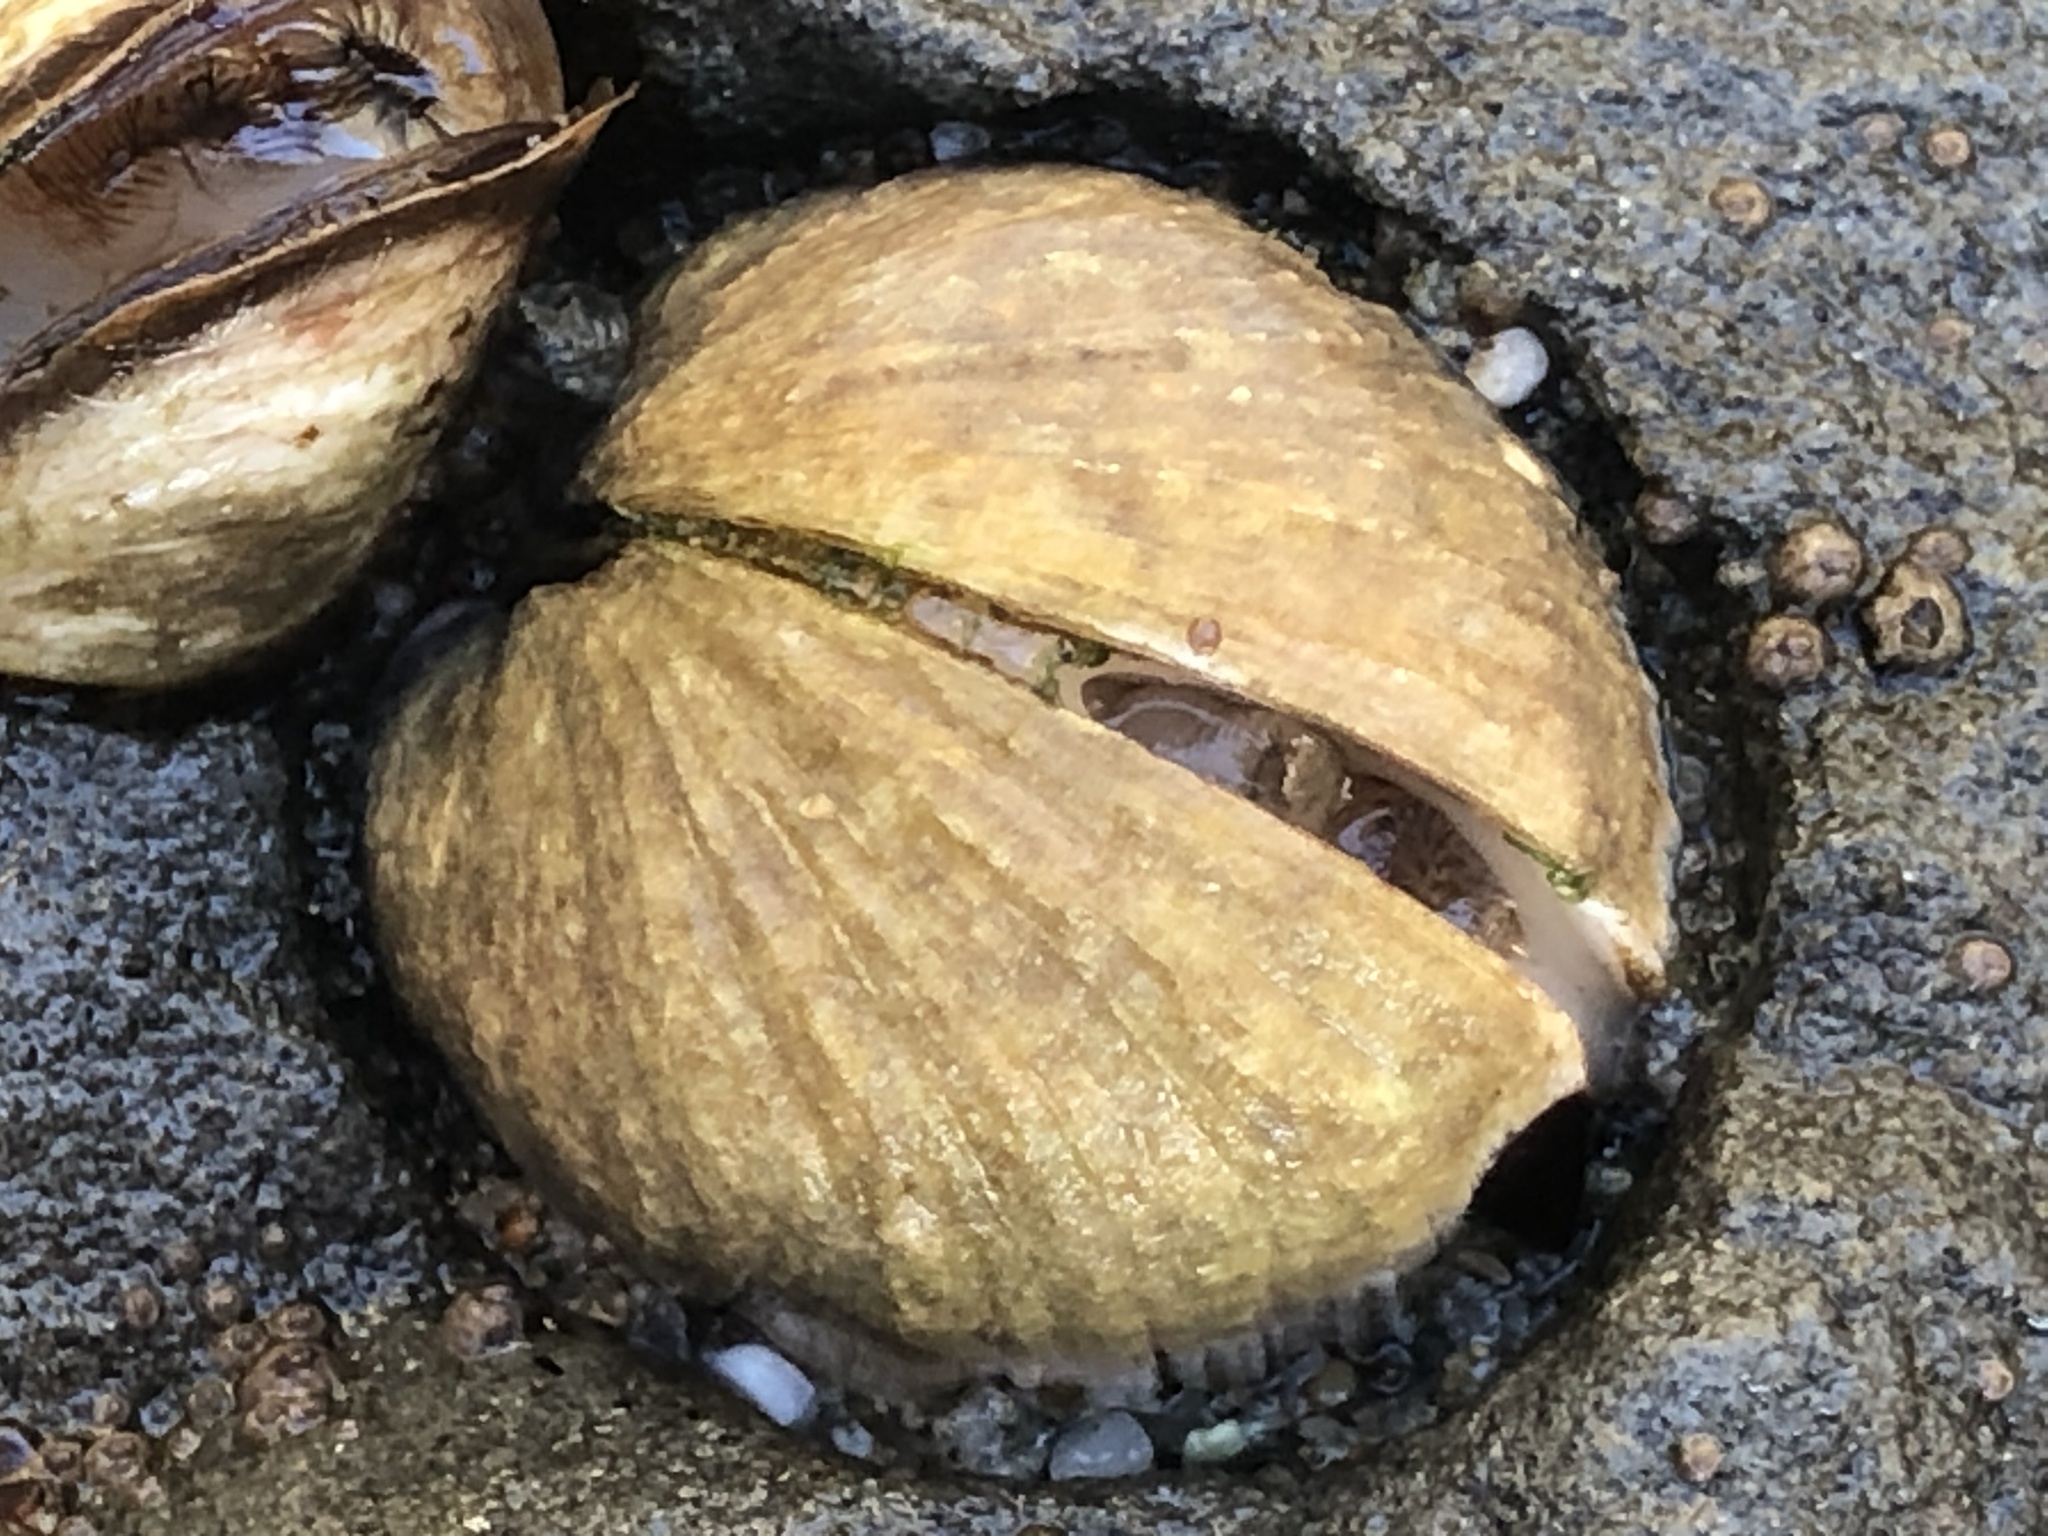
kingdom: Animalia
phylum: Mollusca
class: Bivalvia
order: Venerida
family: Veneridae
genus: Petricola
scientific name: Petricola carditoides
